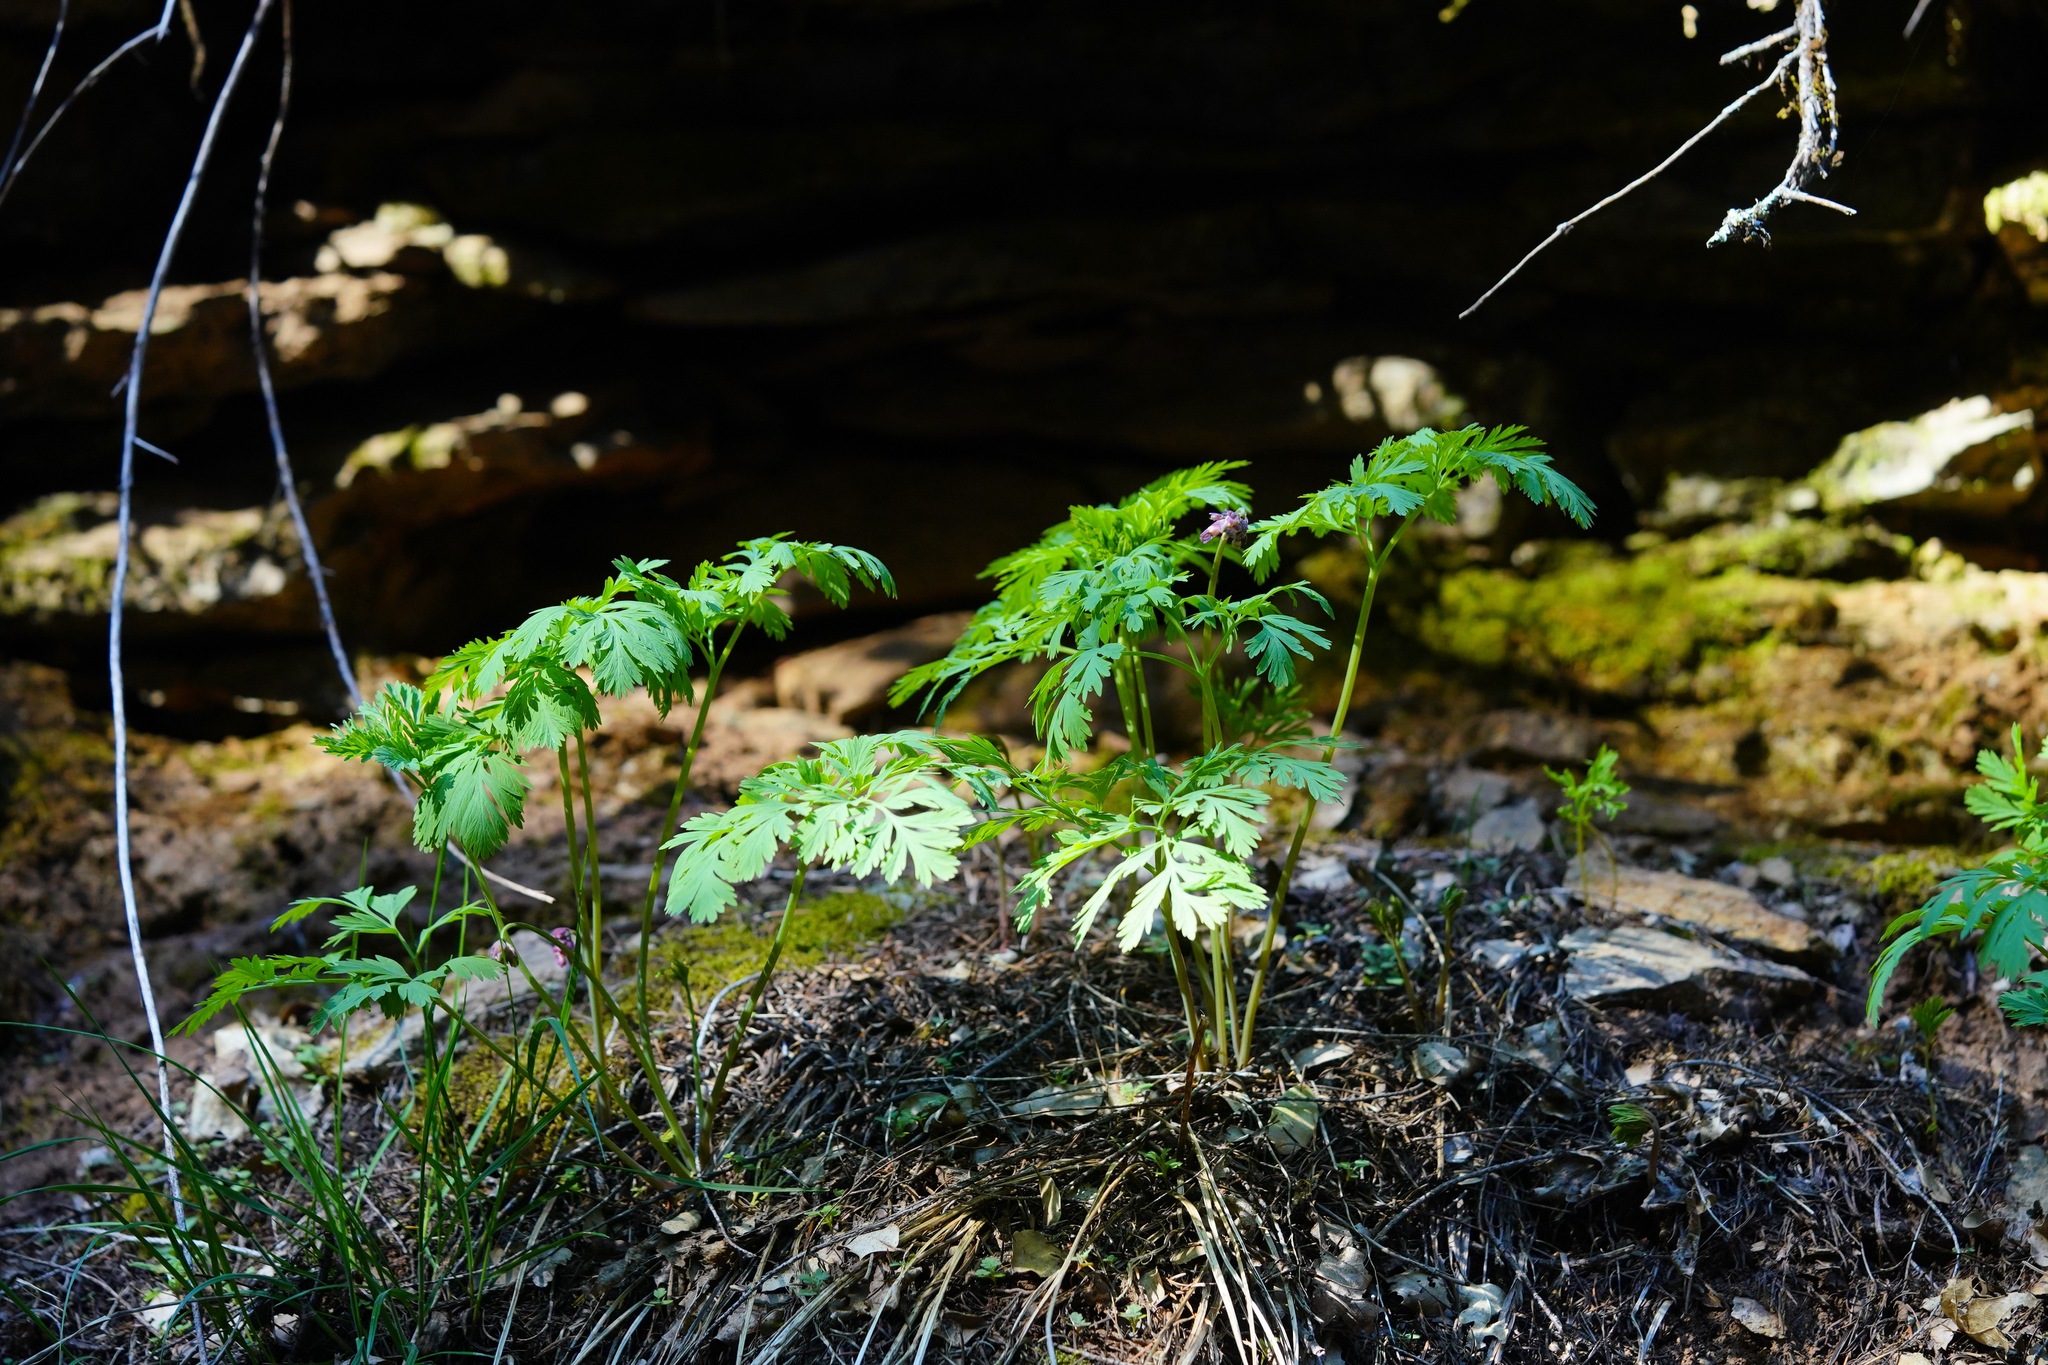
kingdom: Plantae
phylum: Tracheophyta
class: Magnoliopsida
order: Ranunculales
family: Papaveraceae
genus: Dicentra
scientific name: Dicentra formosa
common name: Bleeding-heart
